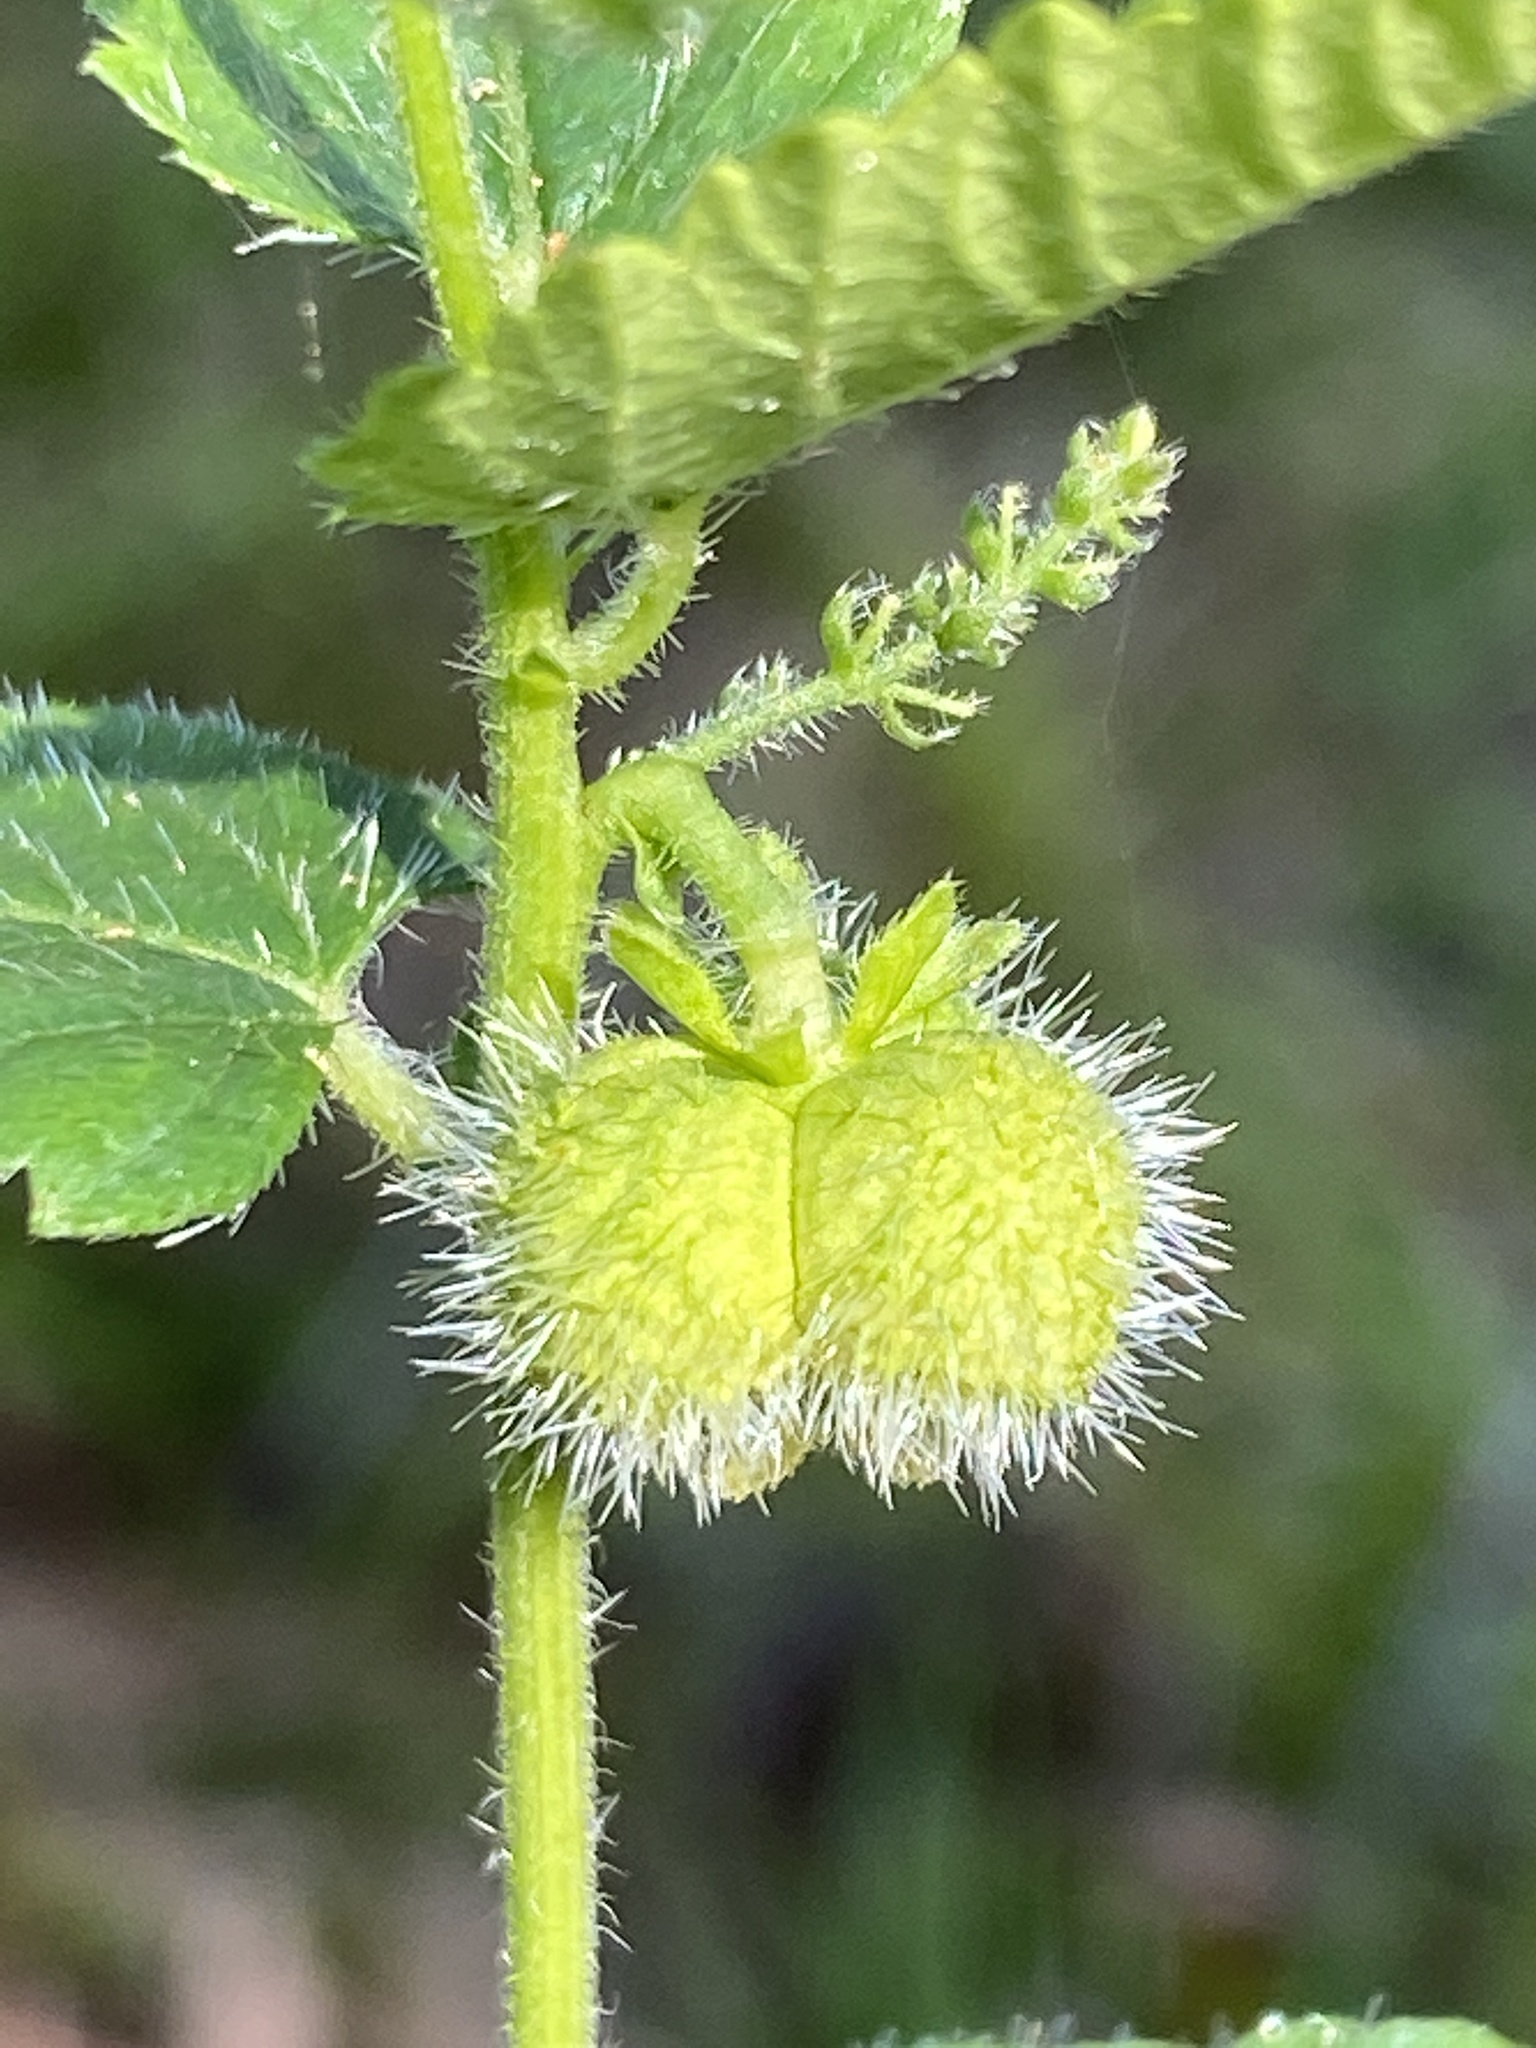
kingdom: Plantae
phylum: Tracheophyta
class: Magnoliopsida
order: Malpighiales
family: Euphorbiaceae
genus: Tragia
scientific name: Tragia urticifolia
